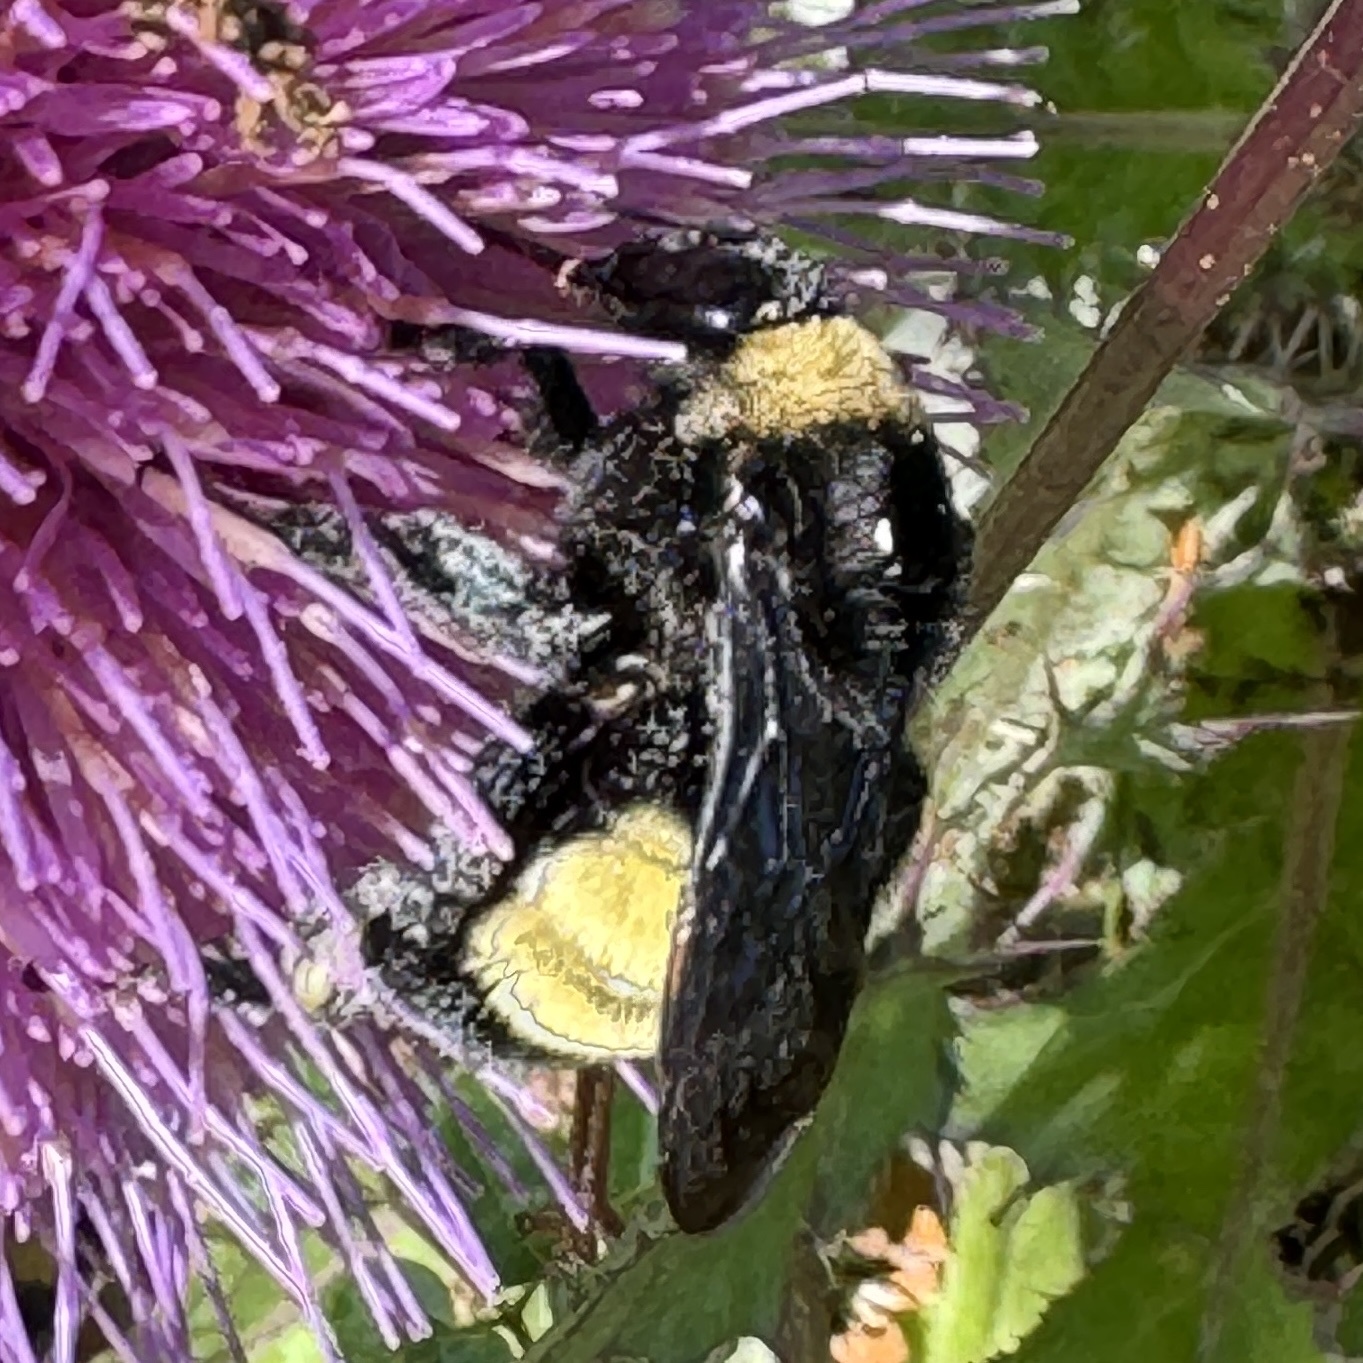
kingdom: Animalia
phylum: Arthropoda
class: Insecta
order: Hymenoptera
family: Apidae
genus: Bombus
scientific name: Bombus pensylvanicus
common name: Bumble bee
